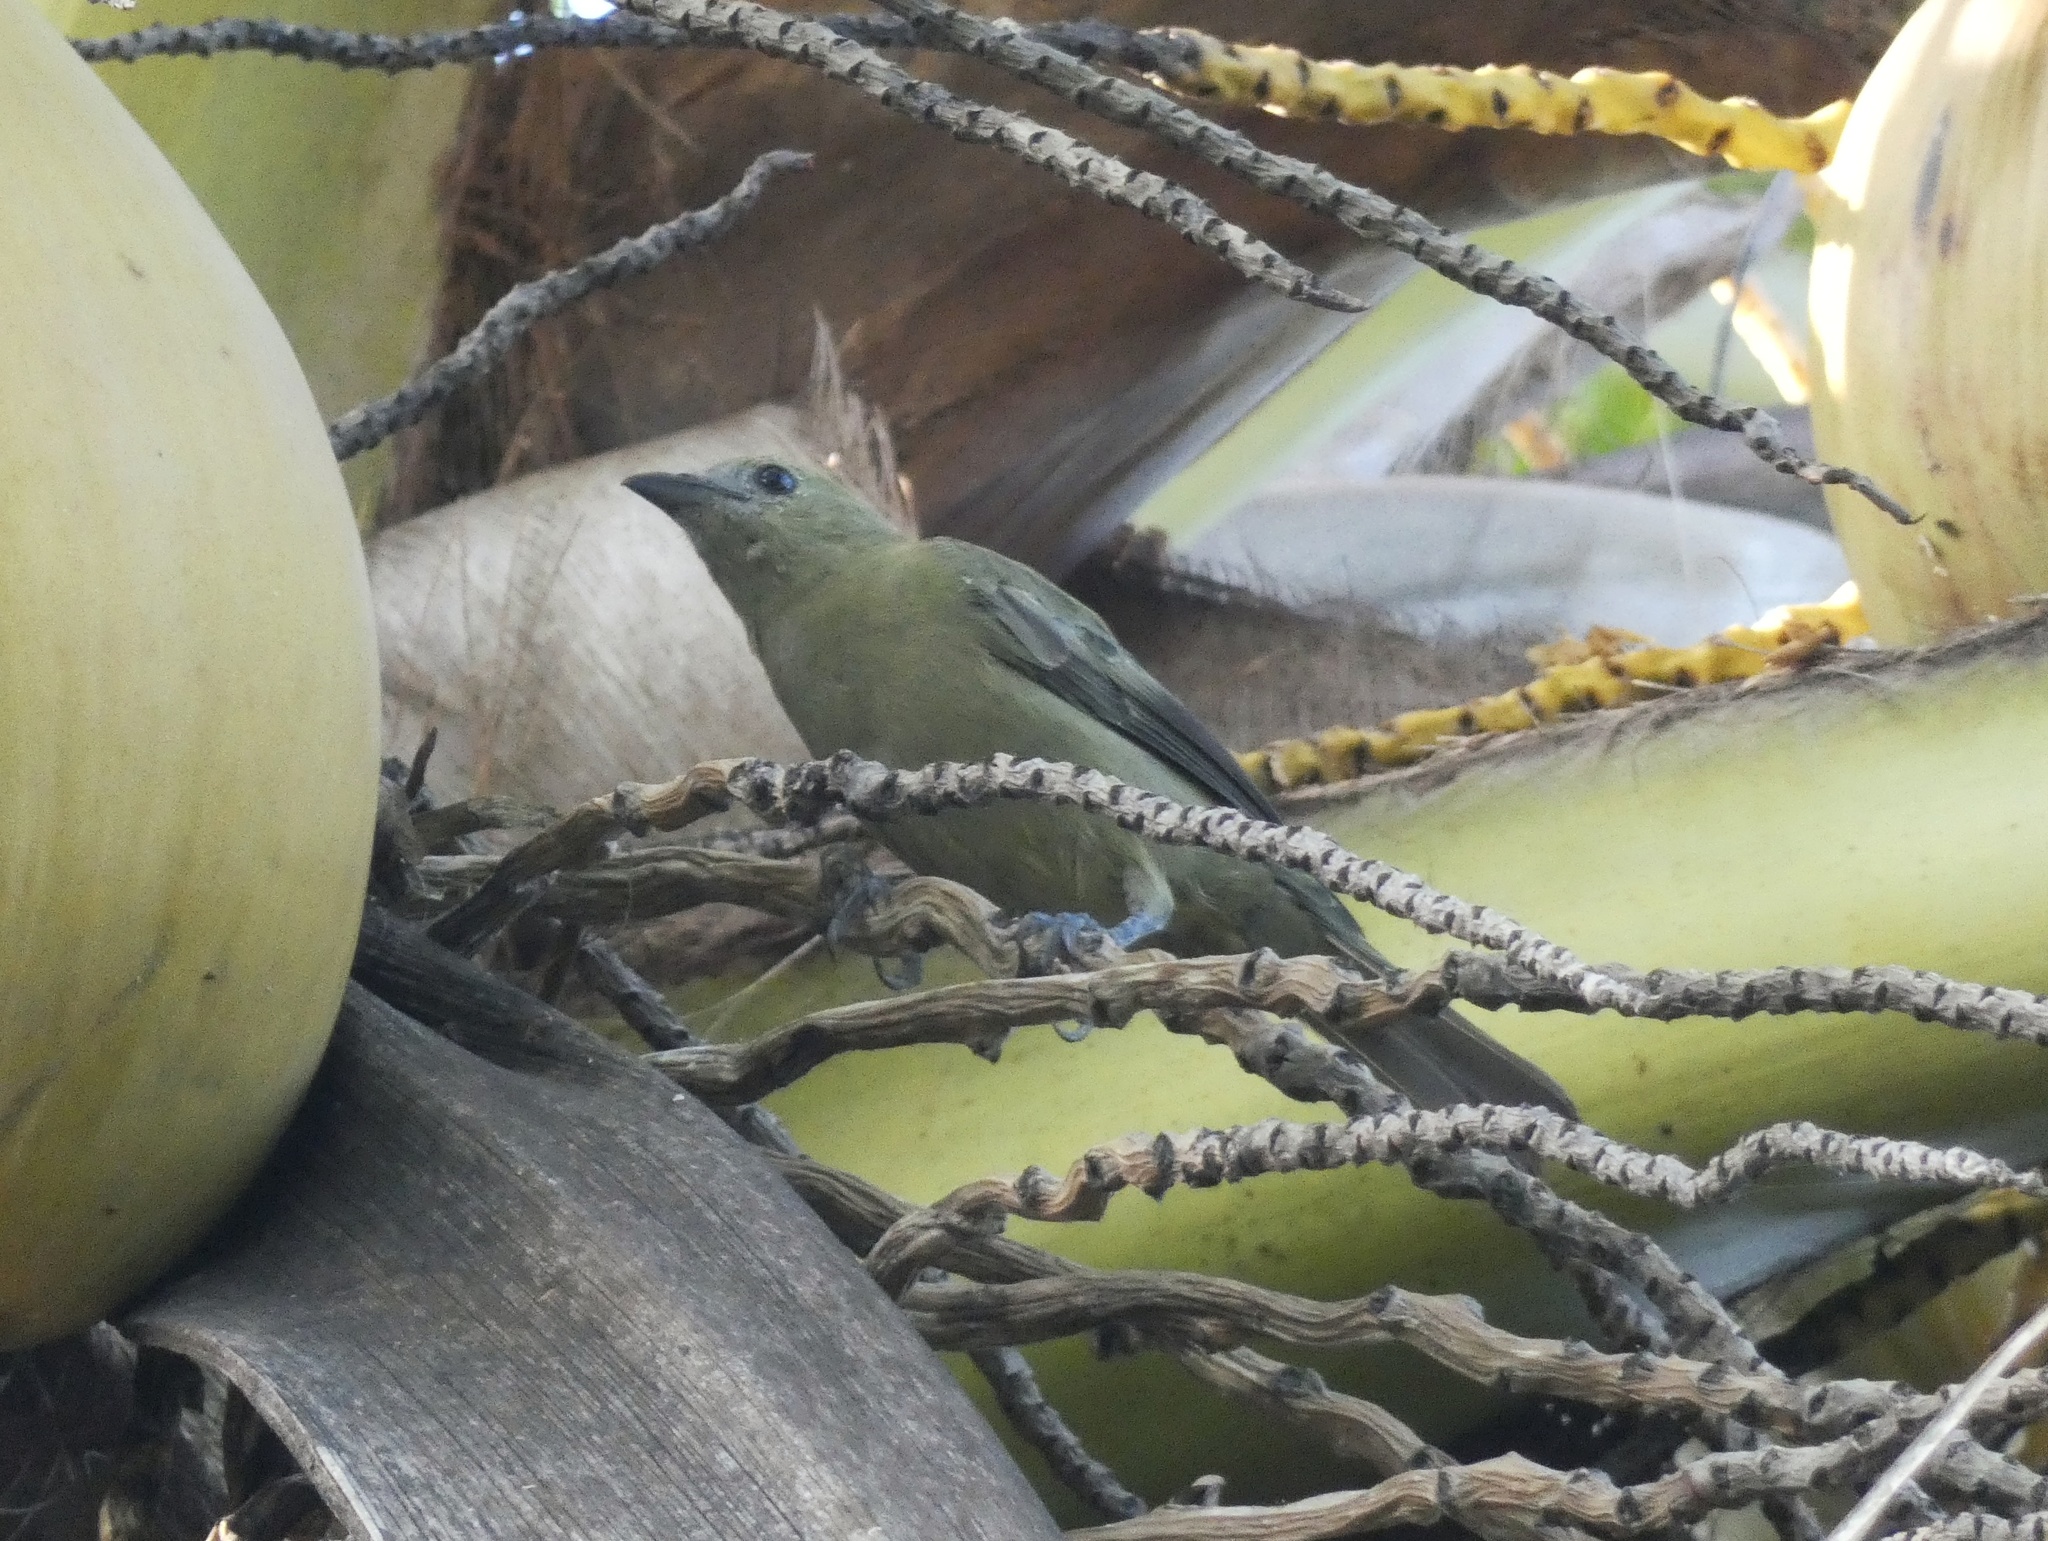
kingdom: Animalia
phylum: Chordata
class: Aves
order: Passeriformes
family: Thraupidae
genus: Thraupis
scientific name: Thraupis palmarum
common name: Palm tanager
